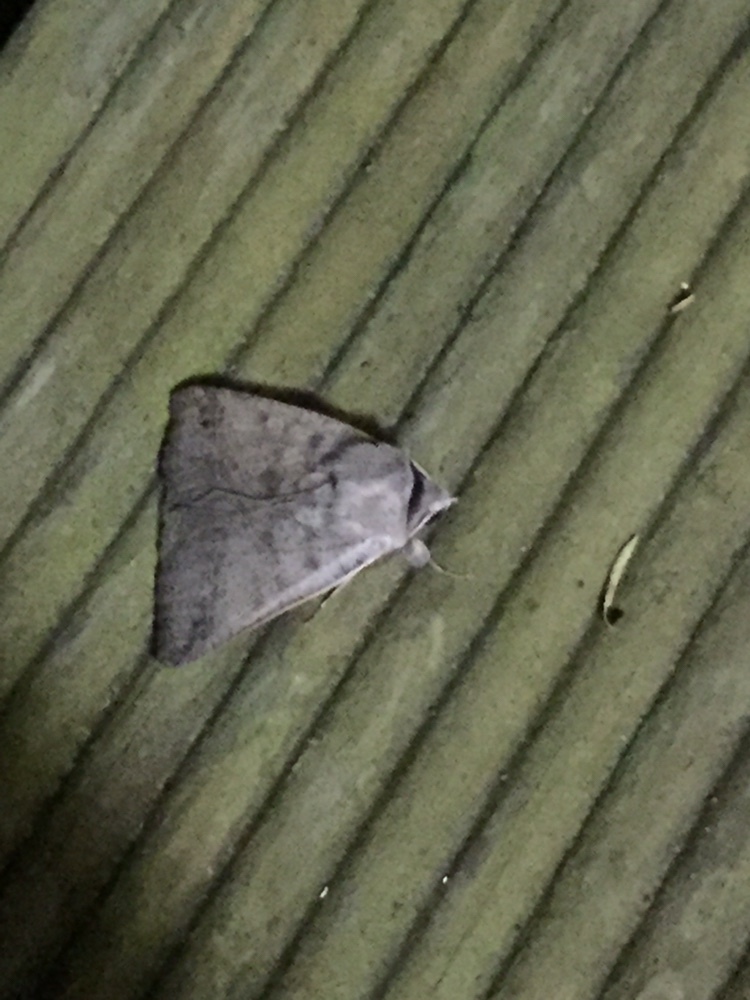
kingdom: Animalia
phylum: Arthropoda
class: Insecta
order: Lepidoptera
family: Erebidae
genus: Pantydia
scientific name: Pantydia sparsa
